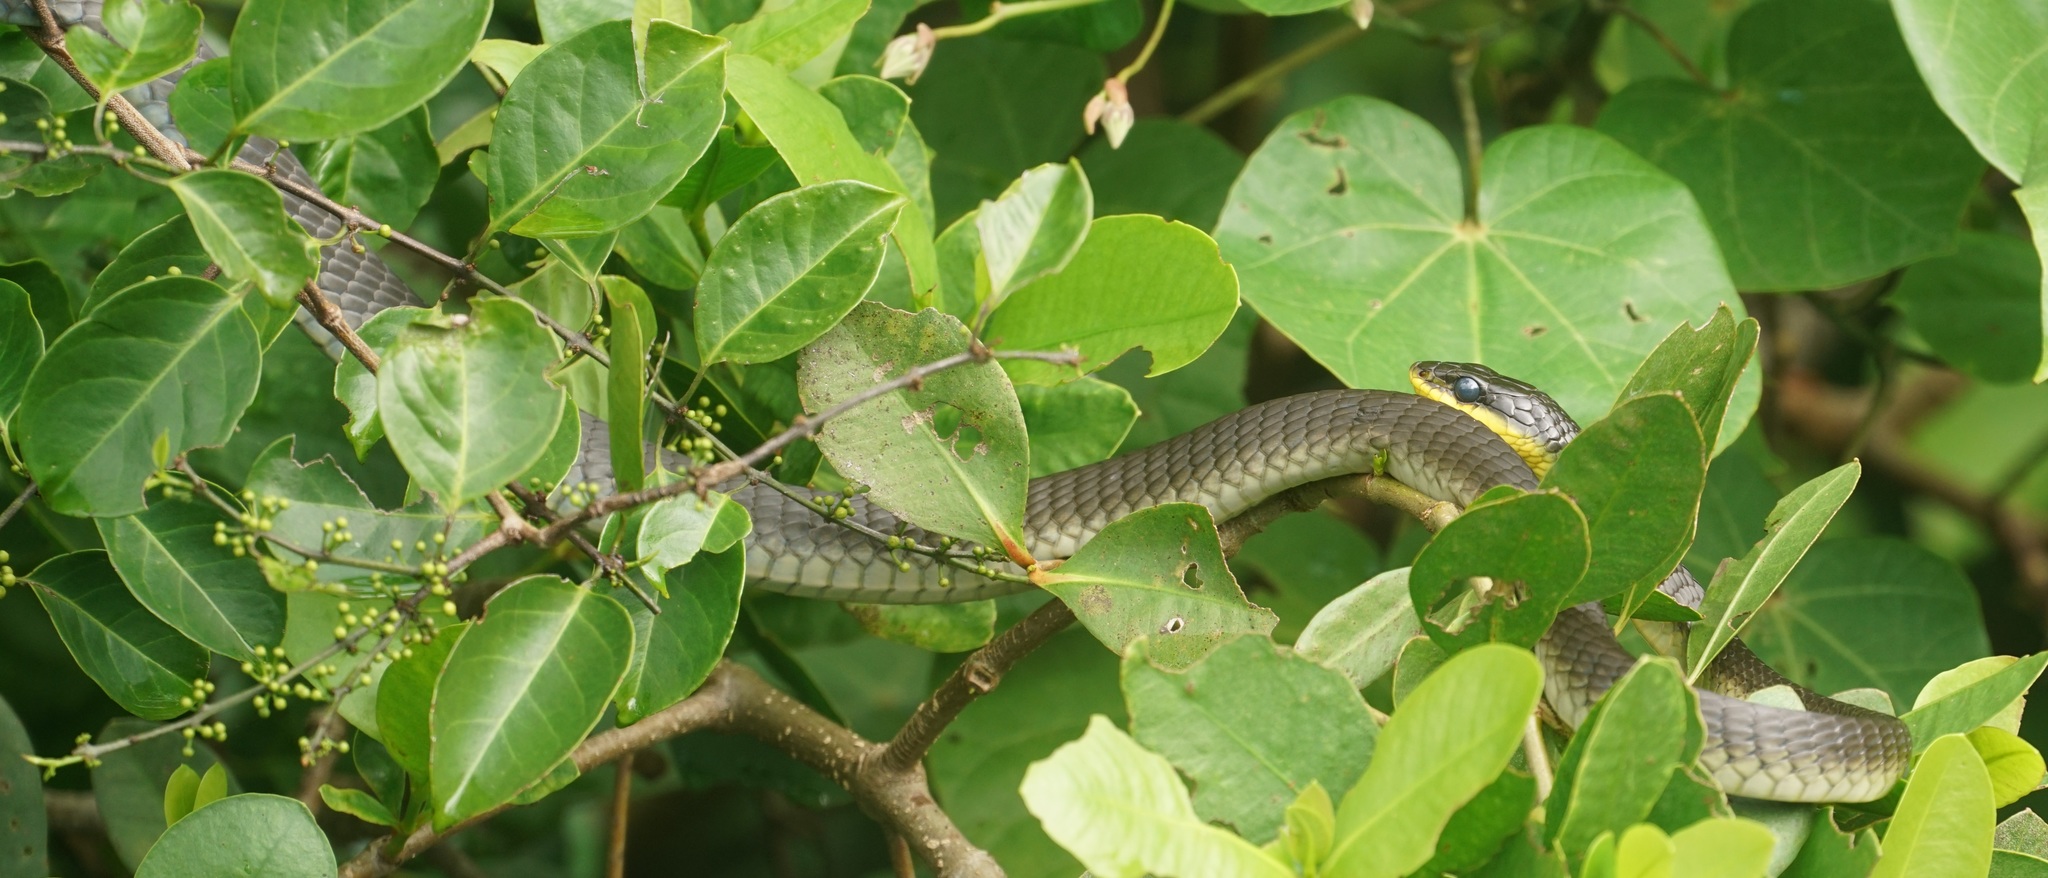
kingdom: Animalia
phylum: Chordata
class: Squamata
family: Colubridae
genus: Dendrelaphis
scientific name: Dendrelaphis punctulatus
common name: Common tree snake
